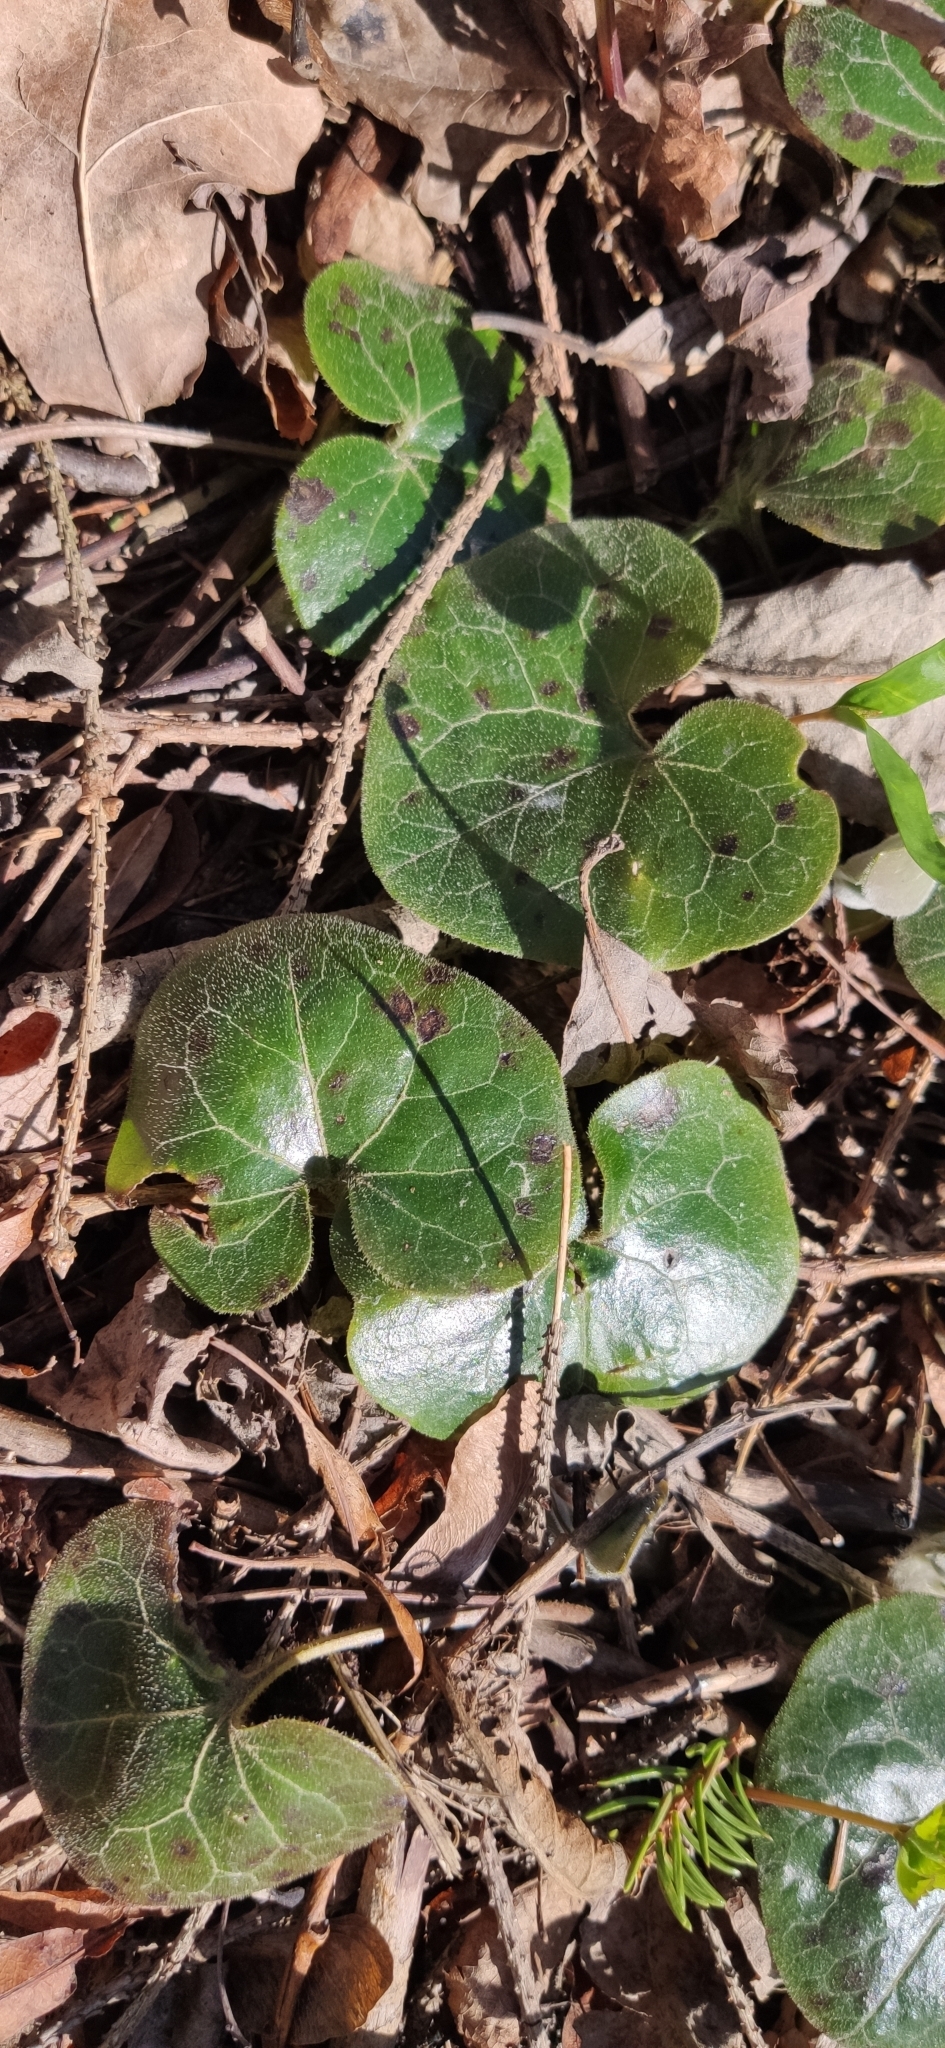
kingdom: Plantae
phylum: Tracheophyta
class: Magnoliopsida
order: Piperales
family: Aristolochiaceae
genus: Asarum
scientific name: Asarum europaeum
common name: Asarabacca
